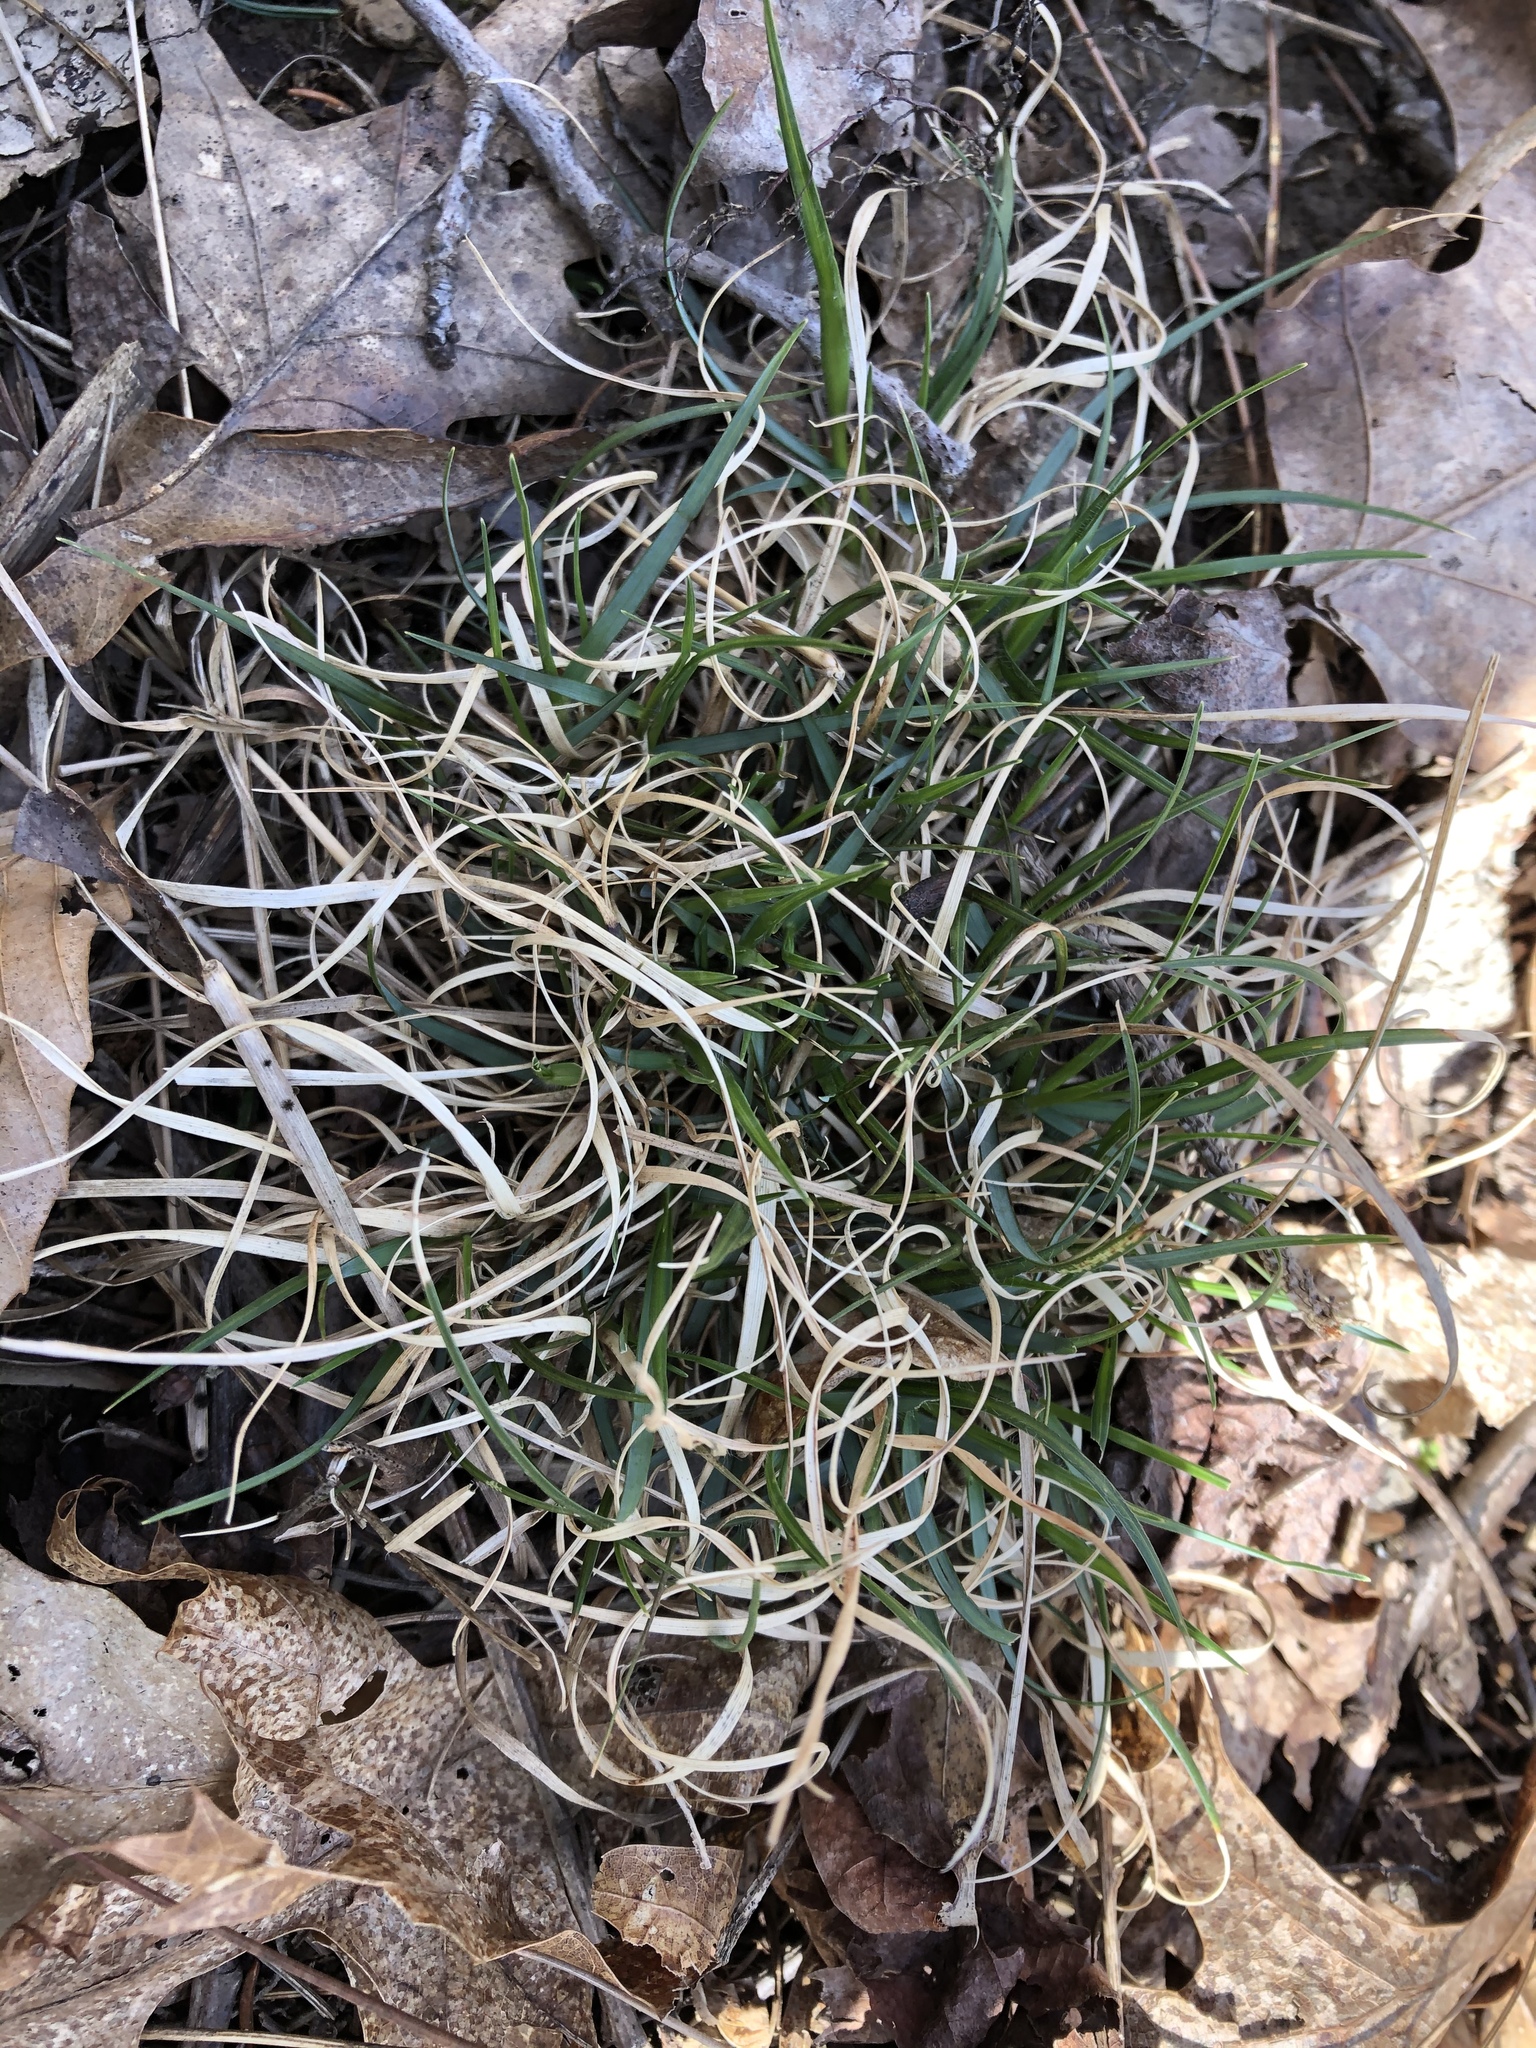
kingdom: Plantae
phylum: Tracheophyta
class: Liliopsida
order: Poales
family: Poaceae
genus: Danthonia
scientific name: Danthonia spicata
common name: Common wild oatgrass
